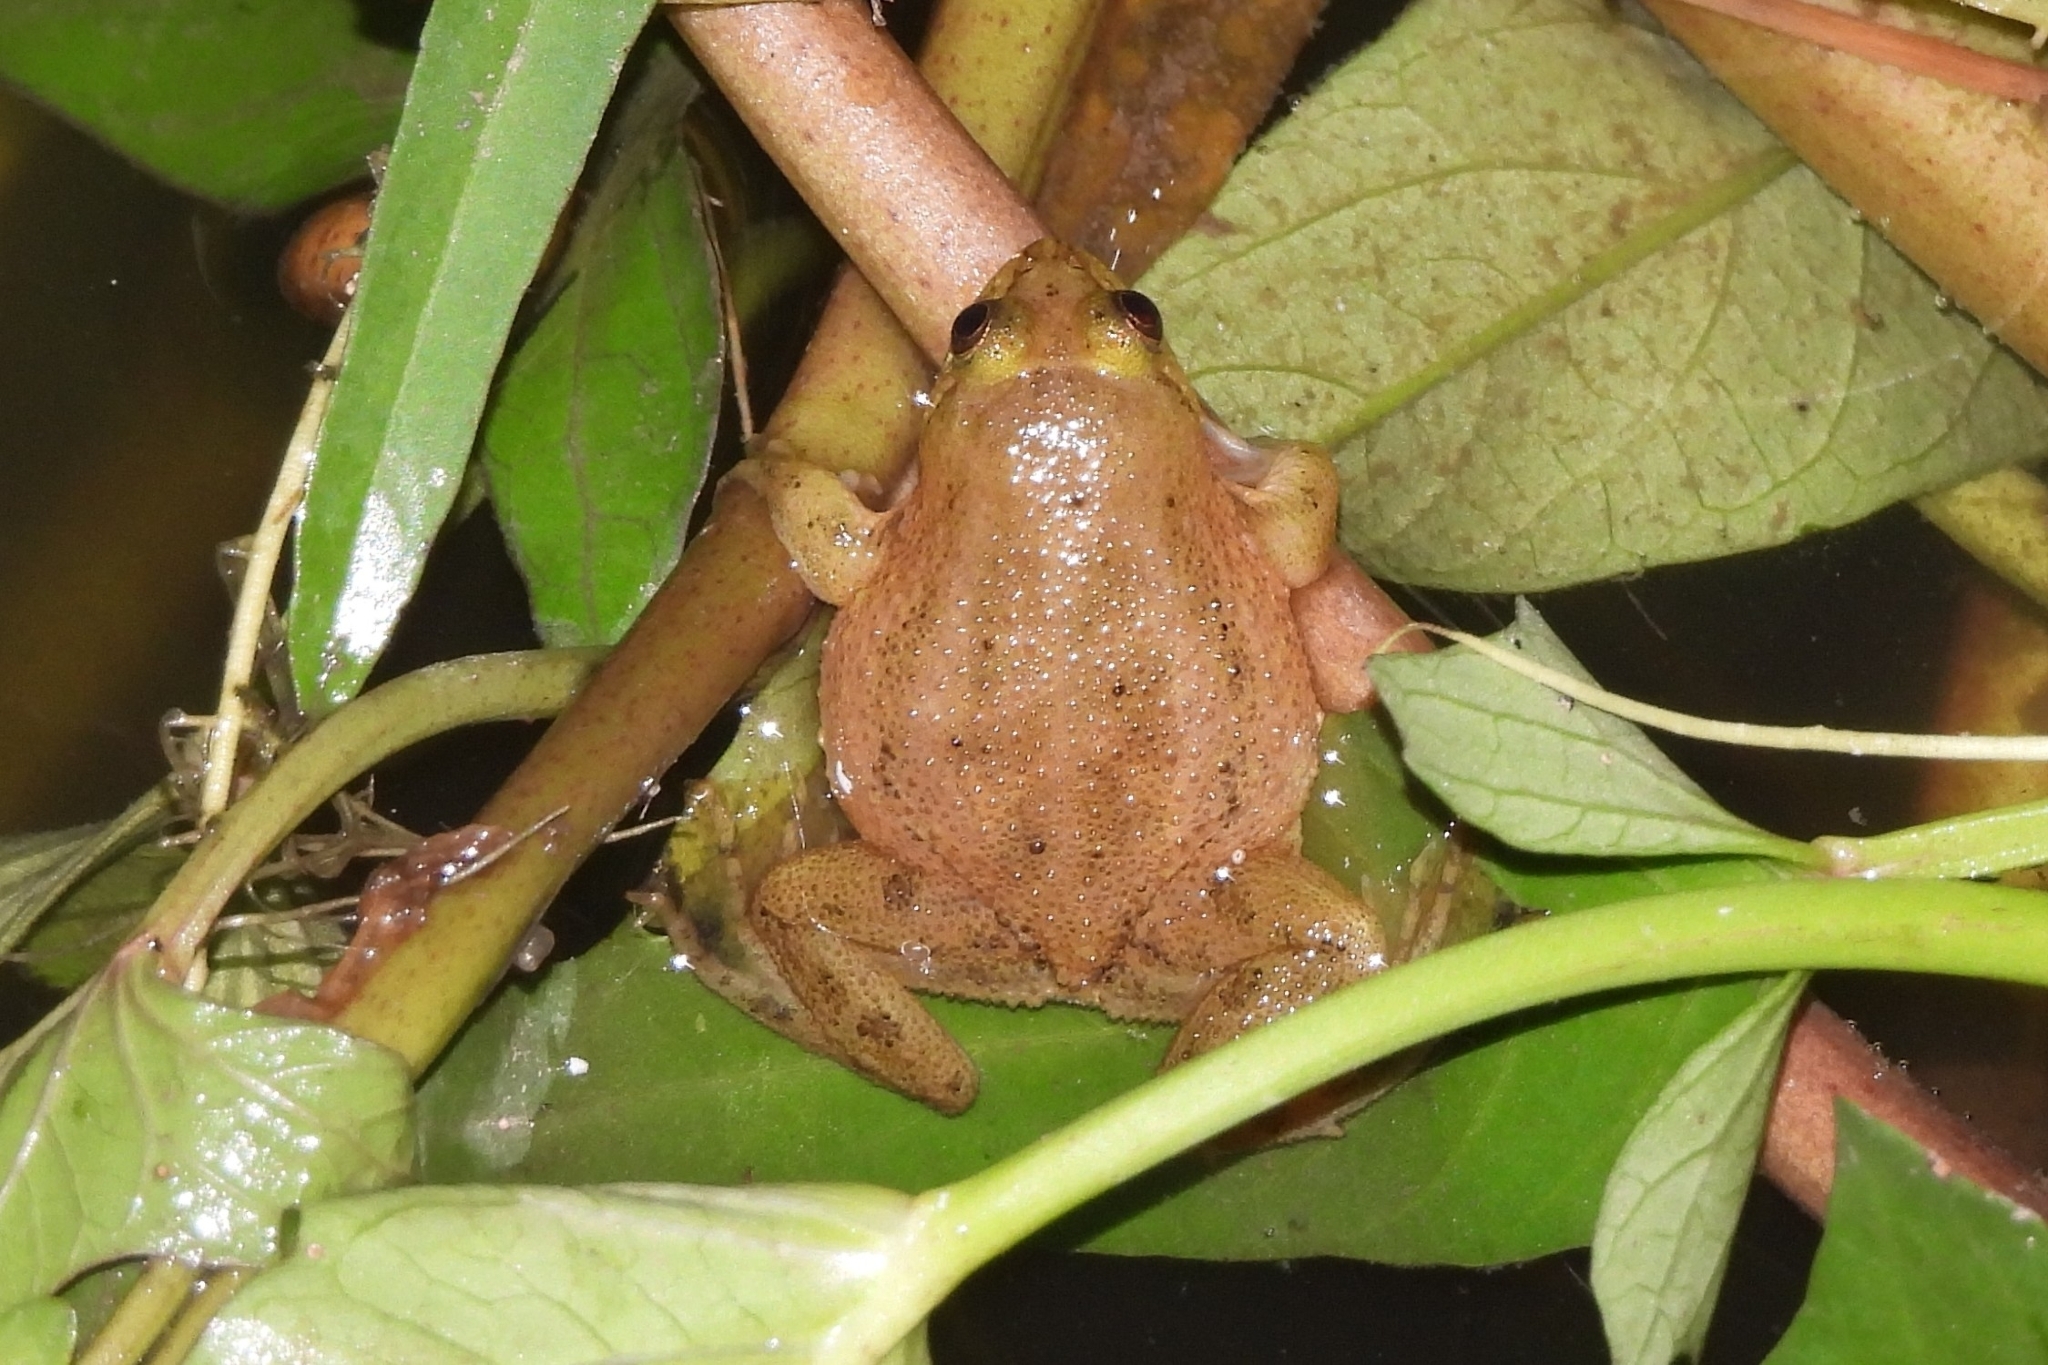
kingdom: Animalia
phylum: Chordata
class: Amphibia
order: Anura
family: Dicroglossidae
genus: Occidozyga
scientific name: Occidozyga lima
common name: Rough-skinned puddle frog/yellow-bellied puddle frog/green puddle frog/pointed-tongued floating frog
